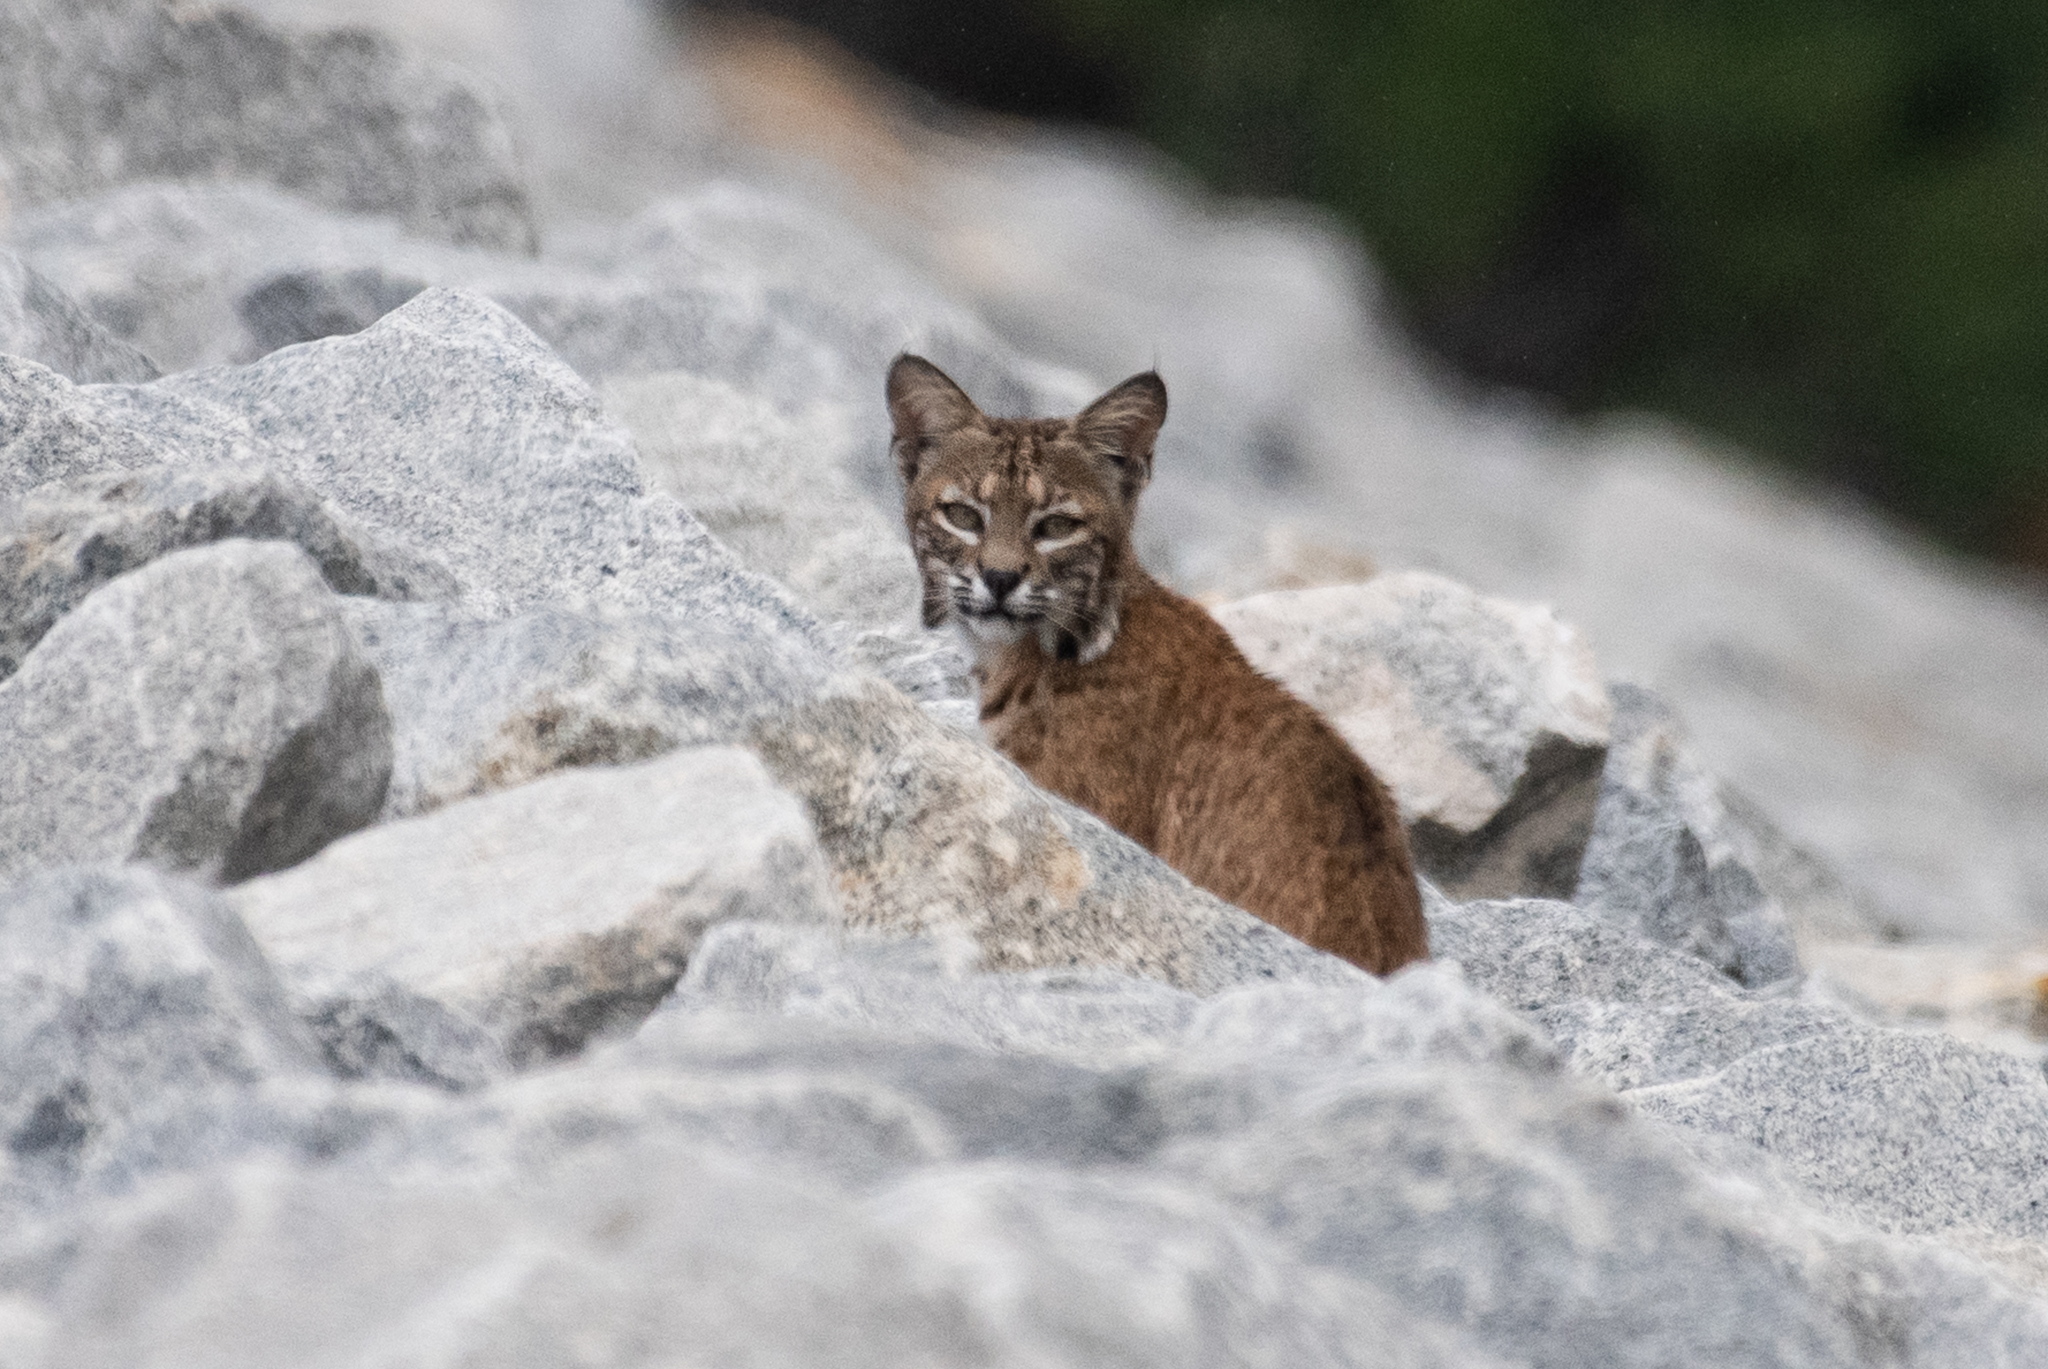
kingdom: Animalia
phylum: Chordata
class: Mammalia
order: Carnivora
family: Felidae
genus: Lynx
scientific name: Lynx rufus
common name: Bobcat
